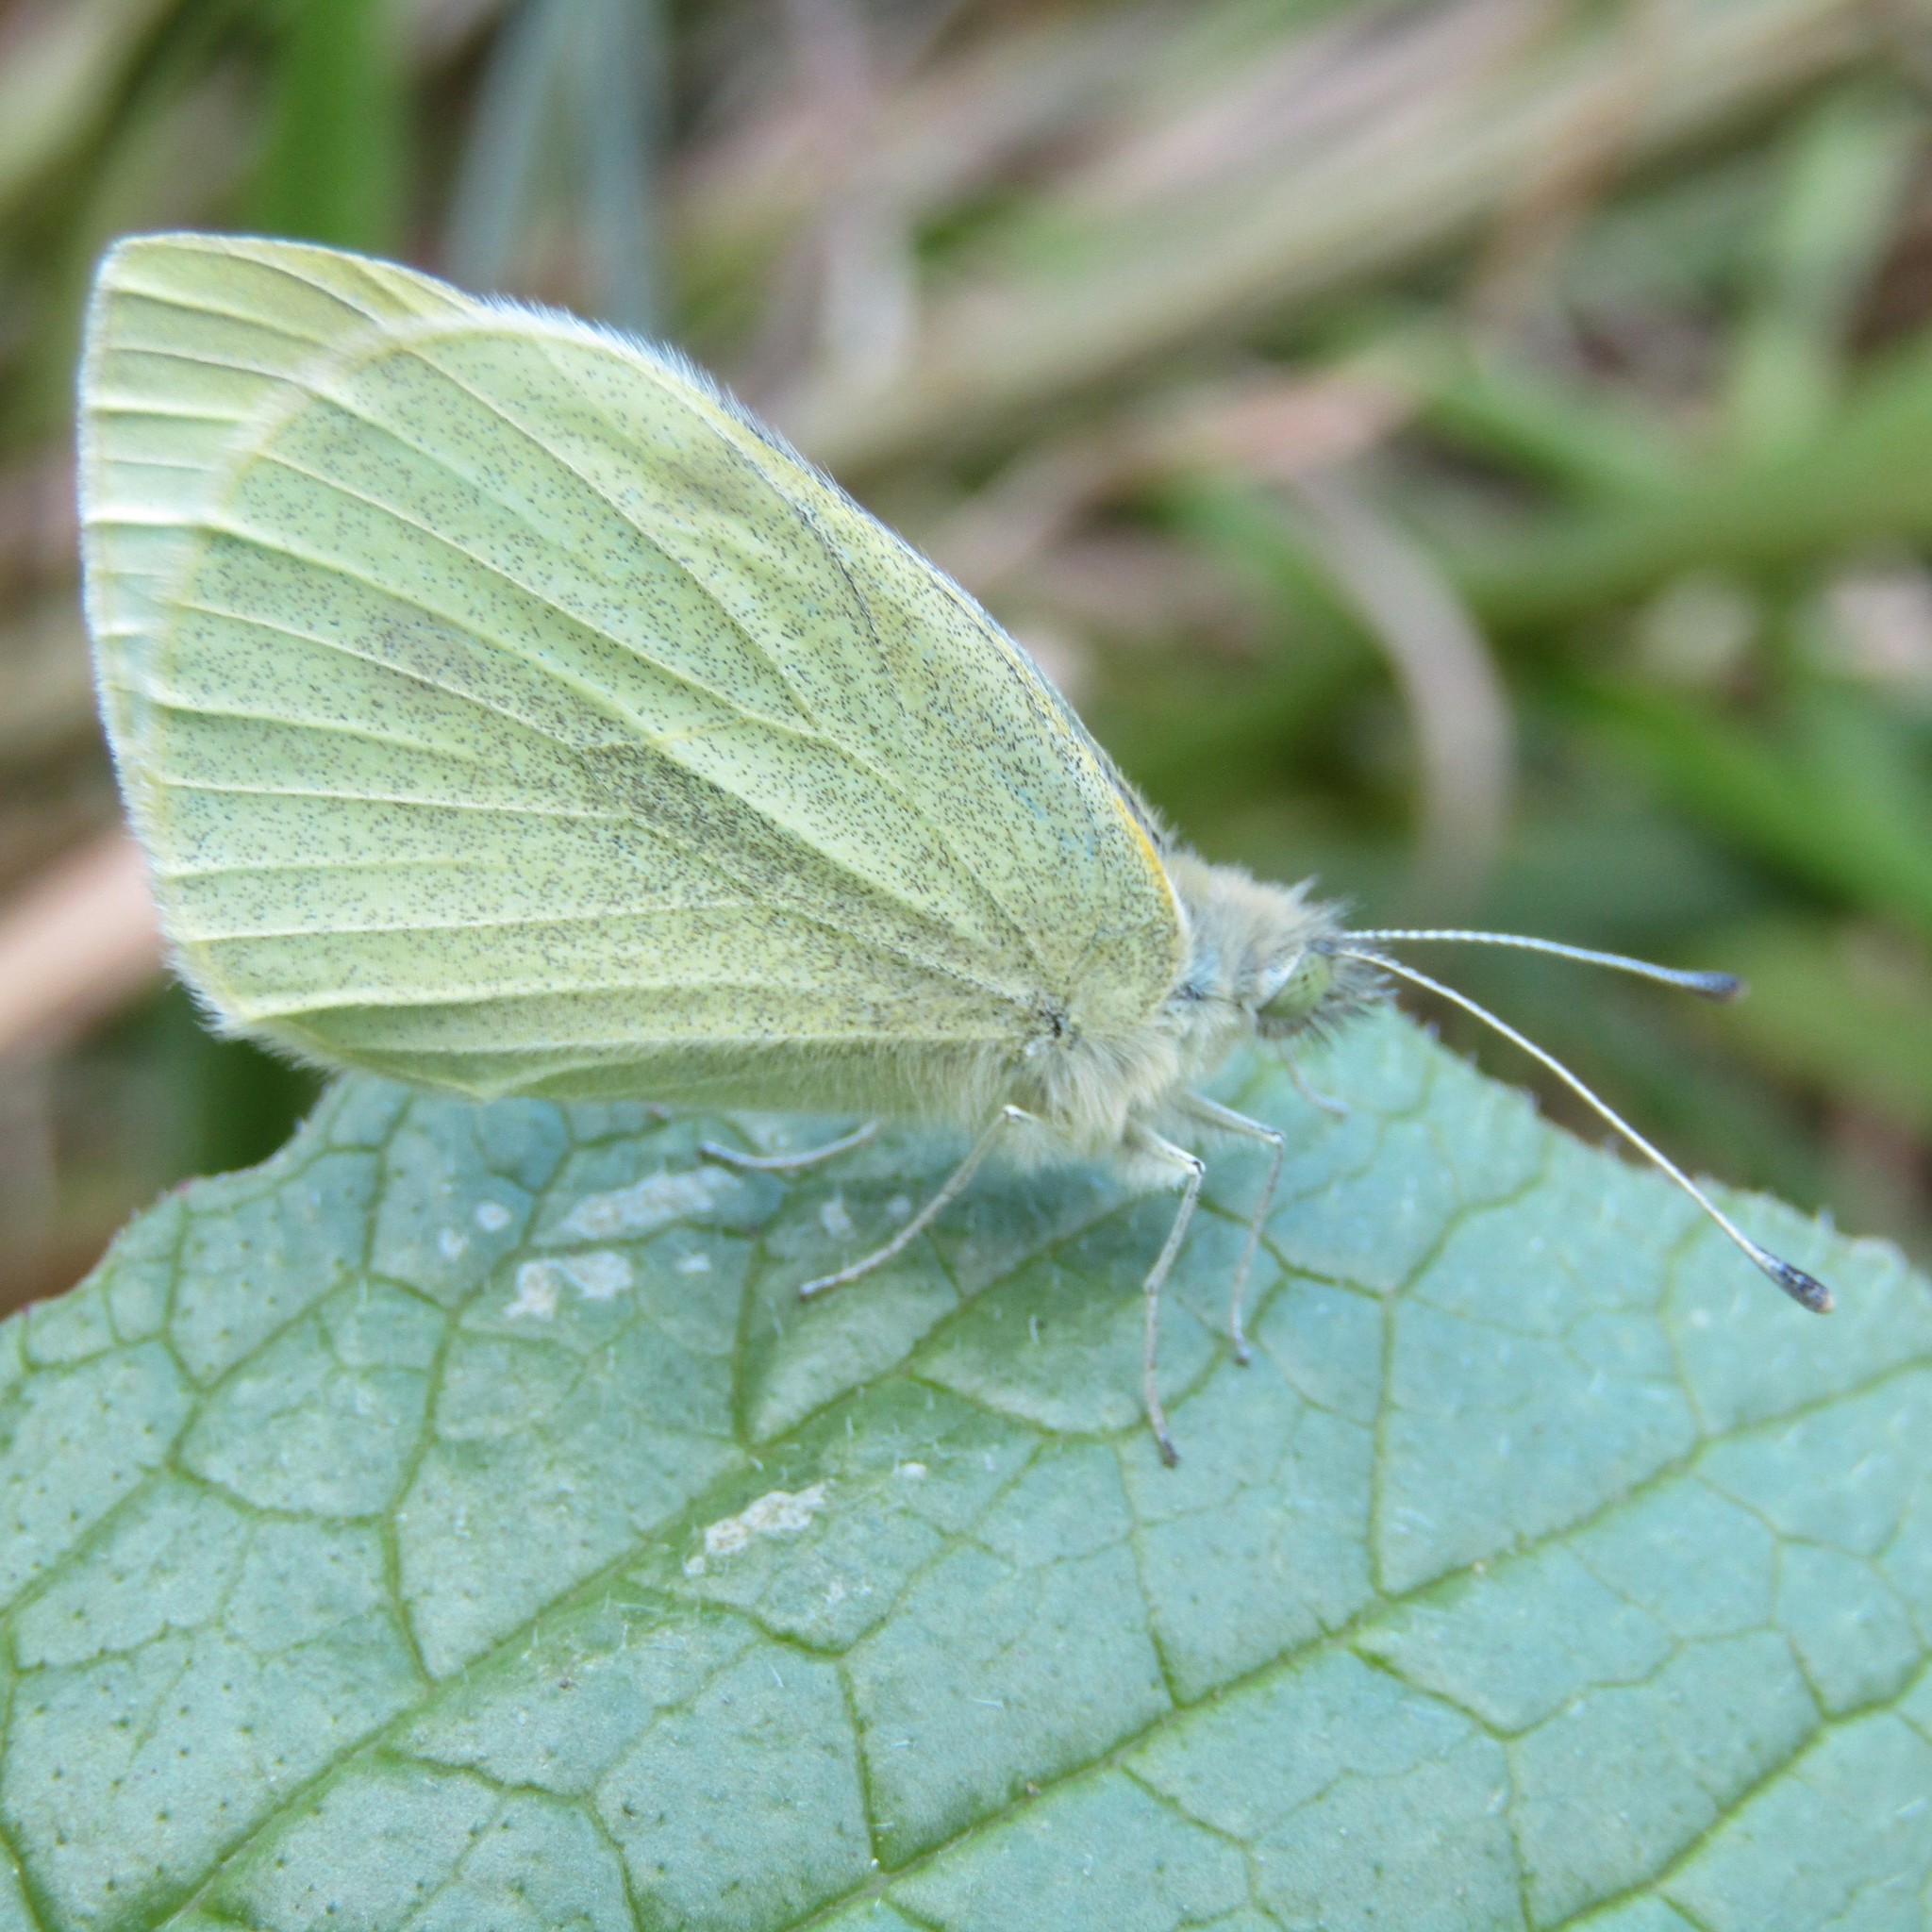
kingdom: Animalia
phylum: Arthropoda
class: Insecta
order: Lepidoptera
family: Pieridae
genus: Pieris
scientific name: Pieris rapae
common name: Small white
